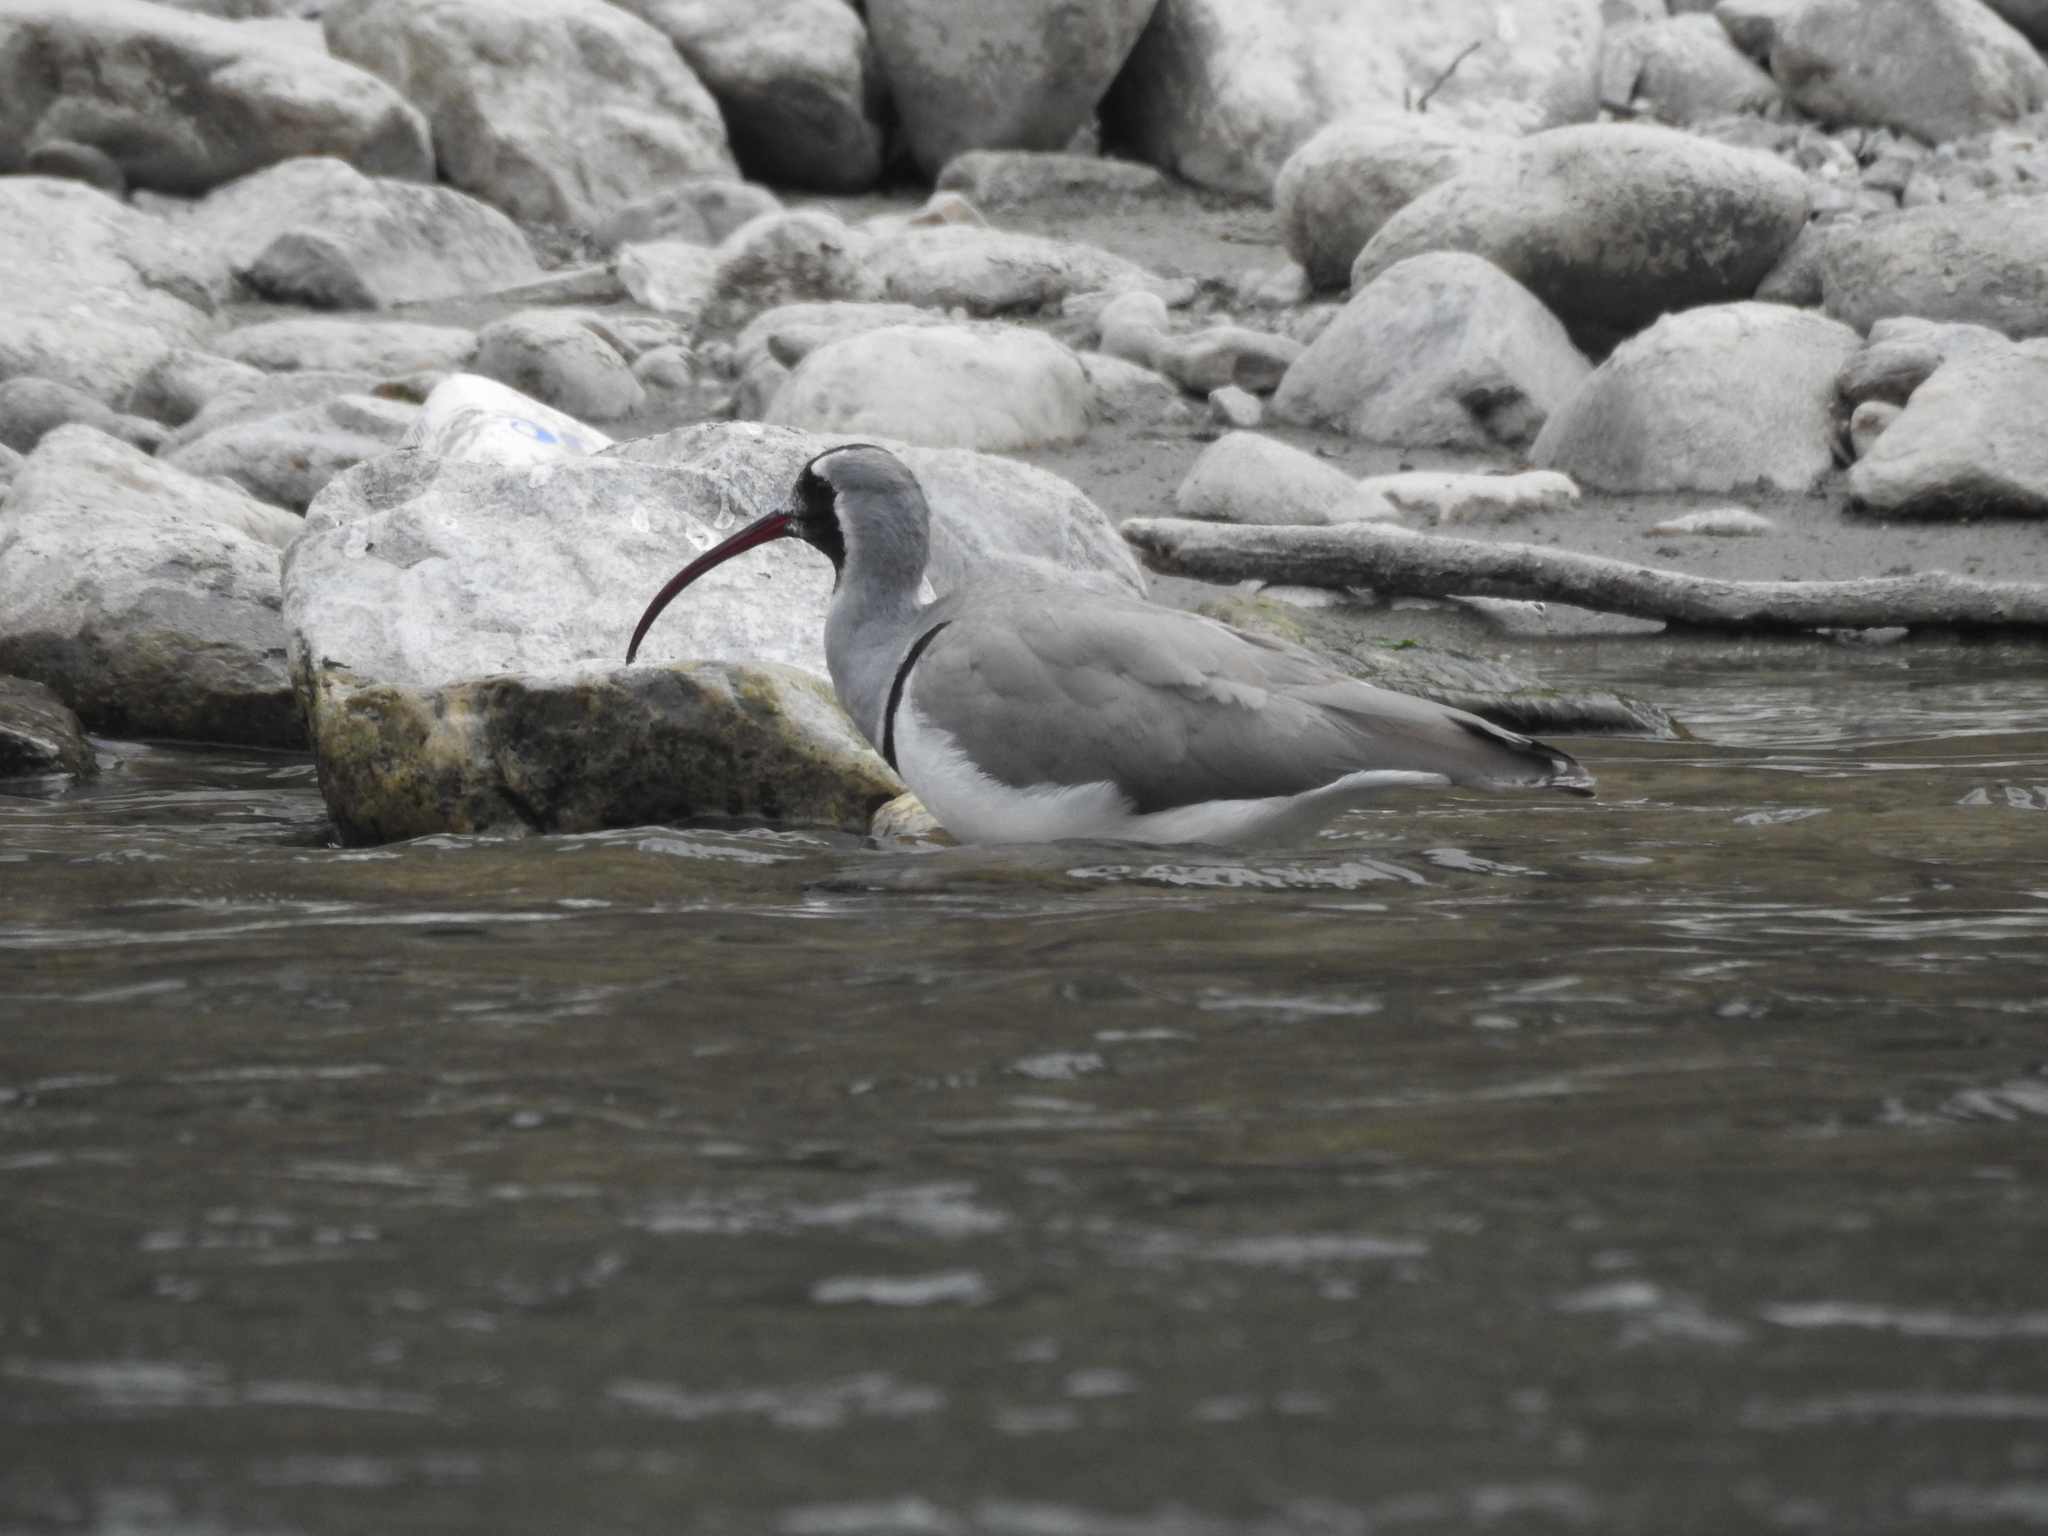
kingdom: Animalia
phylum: Chordata
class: Aves
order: Charadriiformes
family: Ibidorhynchidae
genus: Ibidorhyncha
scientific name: Ibidorhyncha struthersii
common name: Ibisbill
